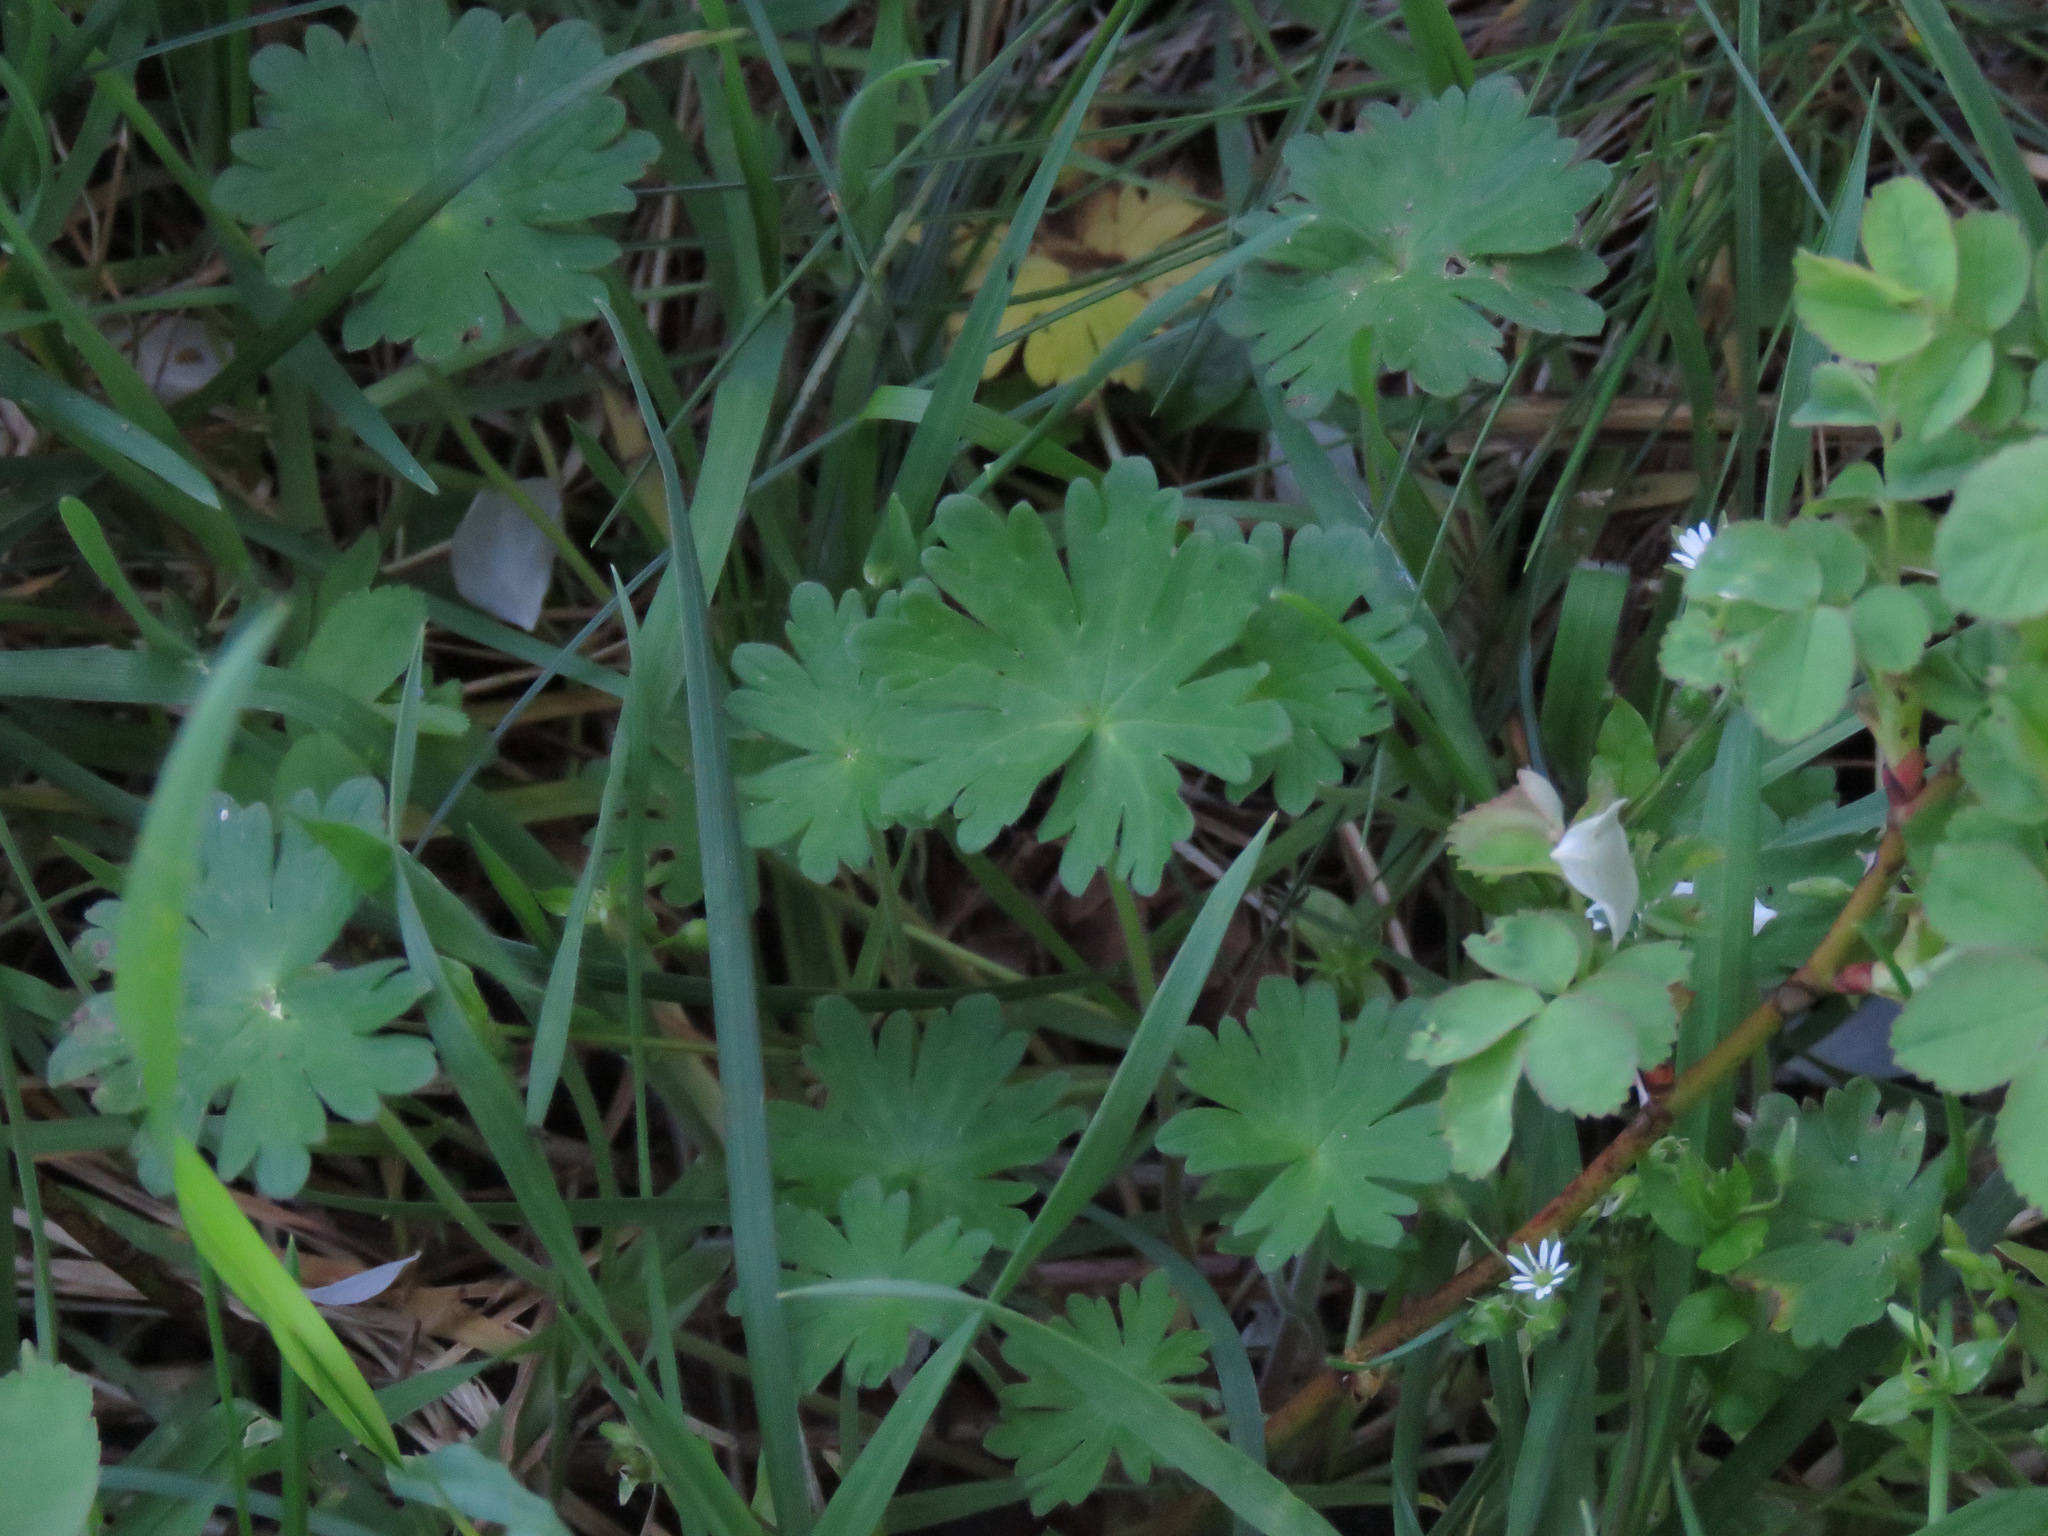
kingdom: Plantae
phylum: Tracheophyta
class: Magnoliopsida
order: Geraniales
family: Geraniaceae
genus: Geranium
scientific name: Geranium molle
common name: Dove's-foot crane's-bill
